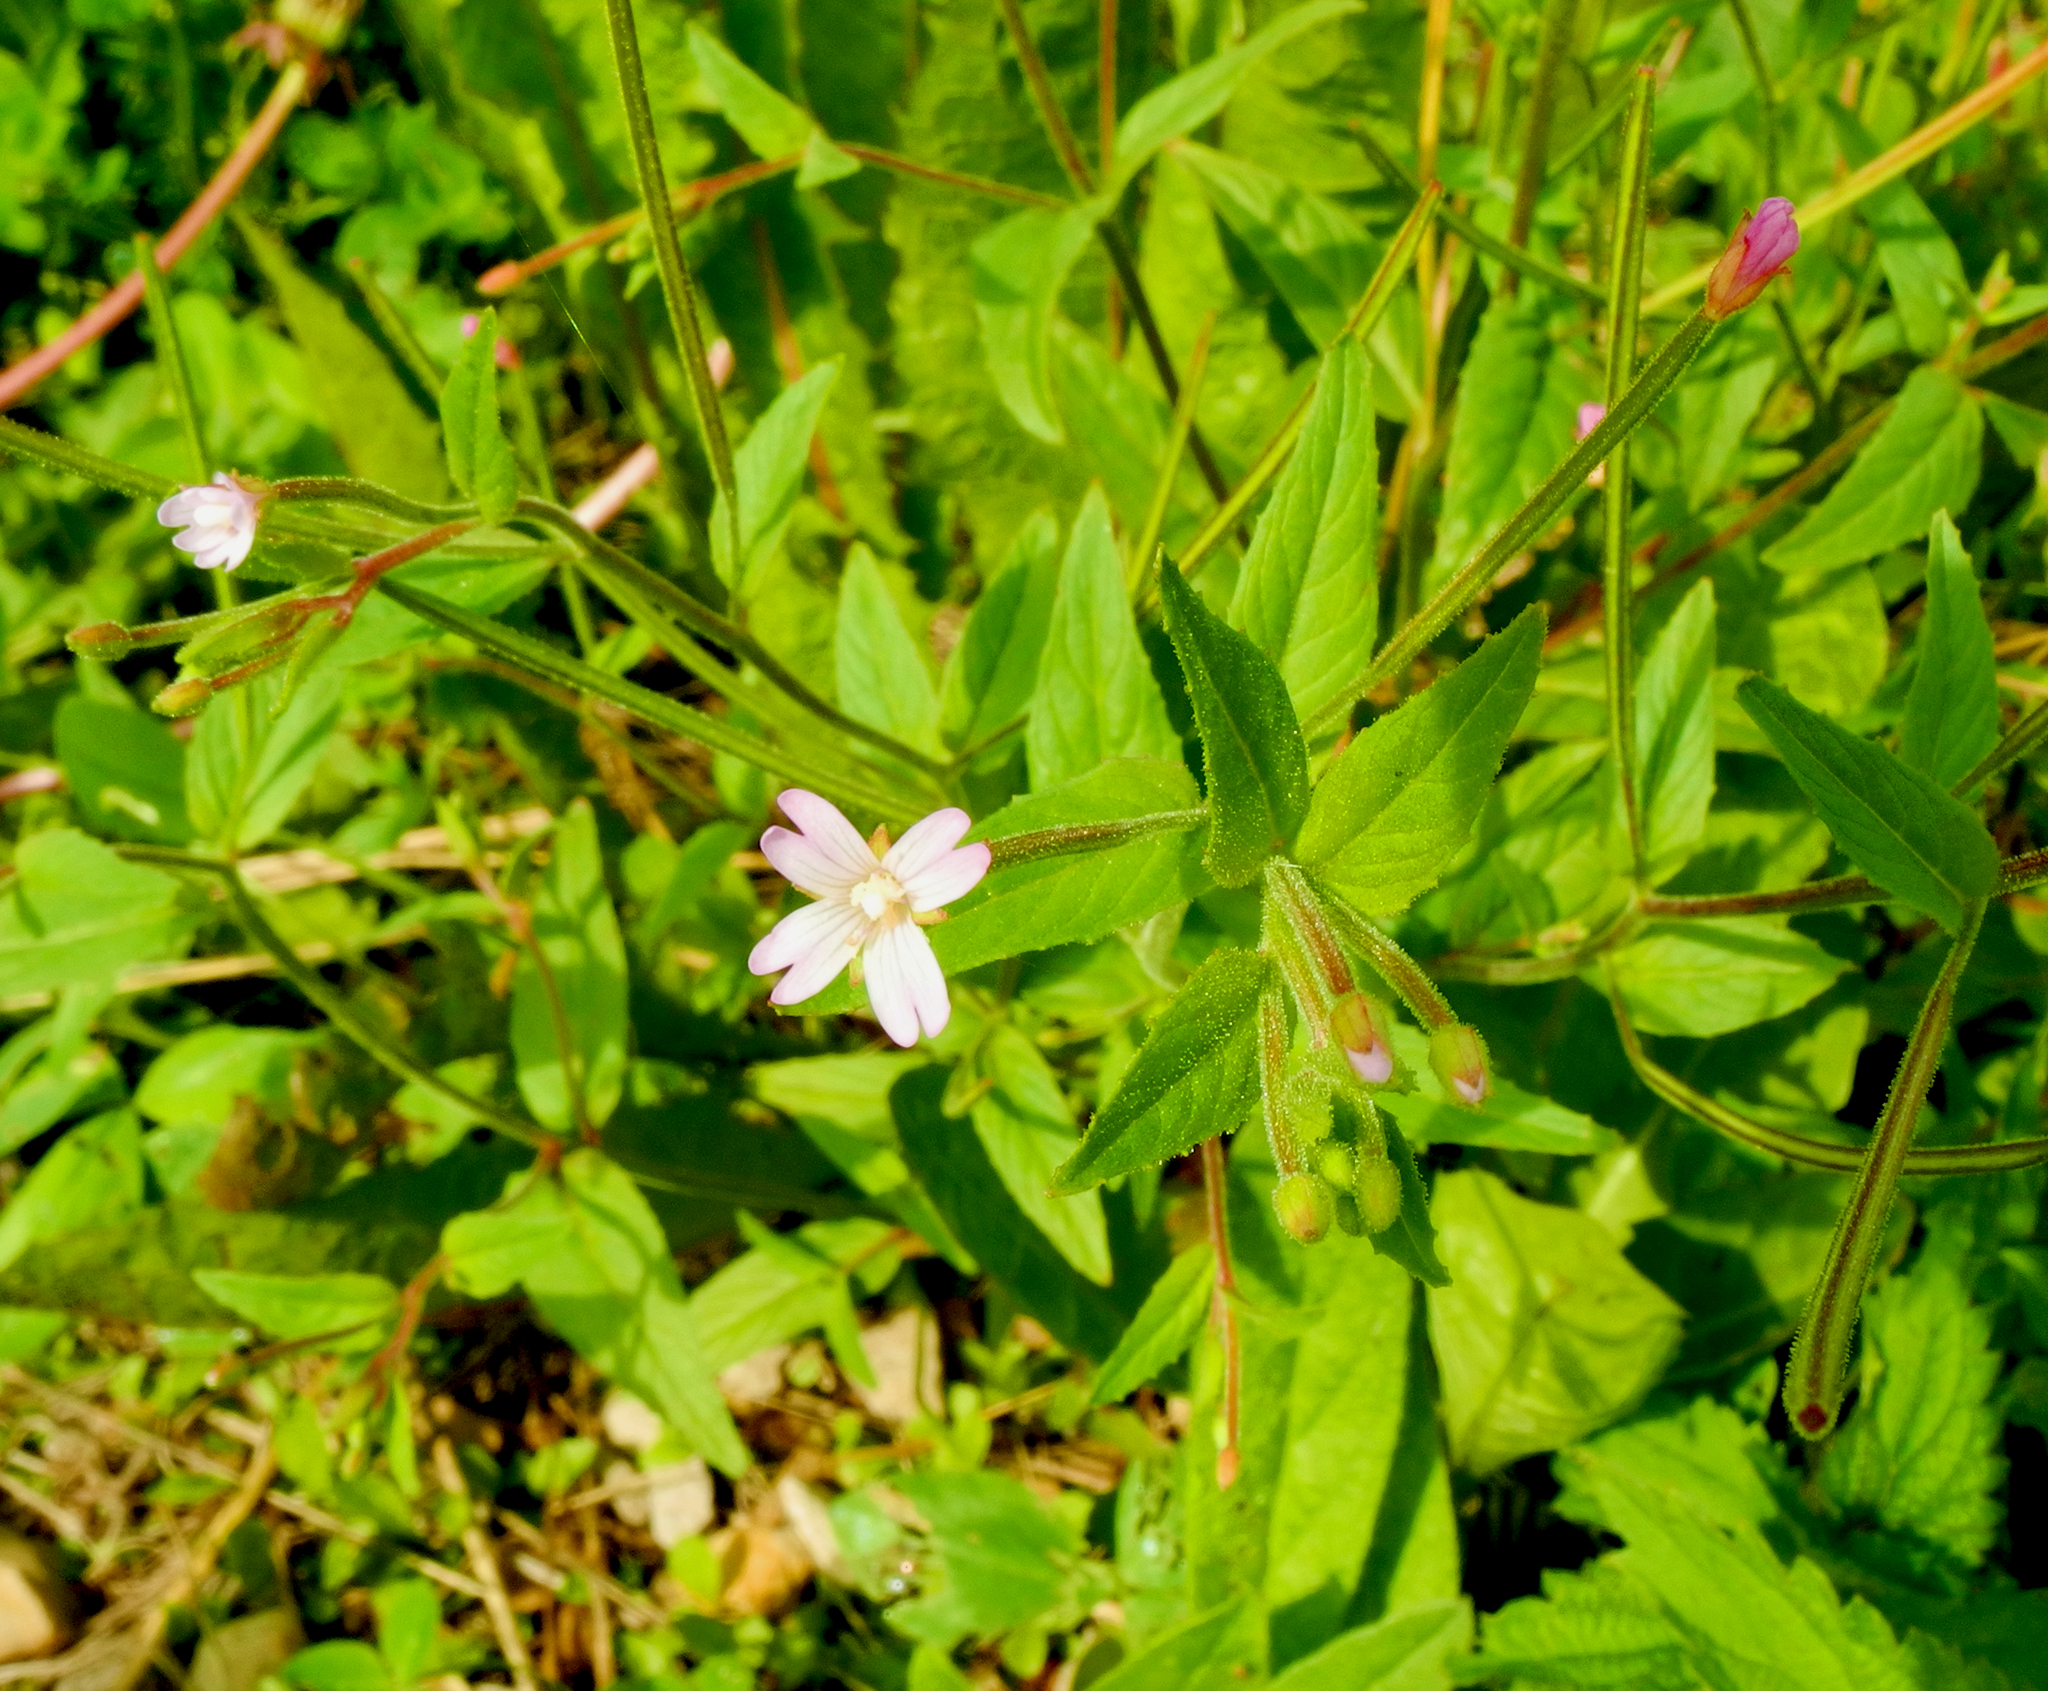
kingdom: Plantae
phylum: Tracheophyta
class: Magnoliopsida
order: Myrtales
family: Onagraceae
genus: Epilobium
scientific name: Epilobium ciliatum
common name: American willowherb
